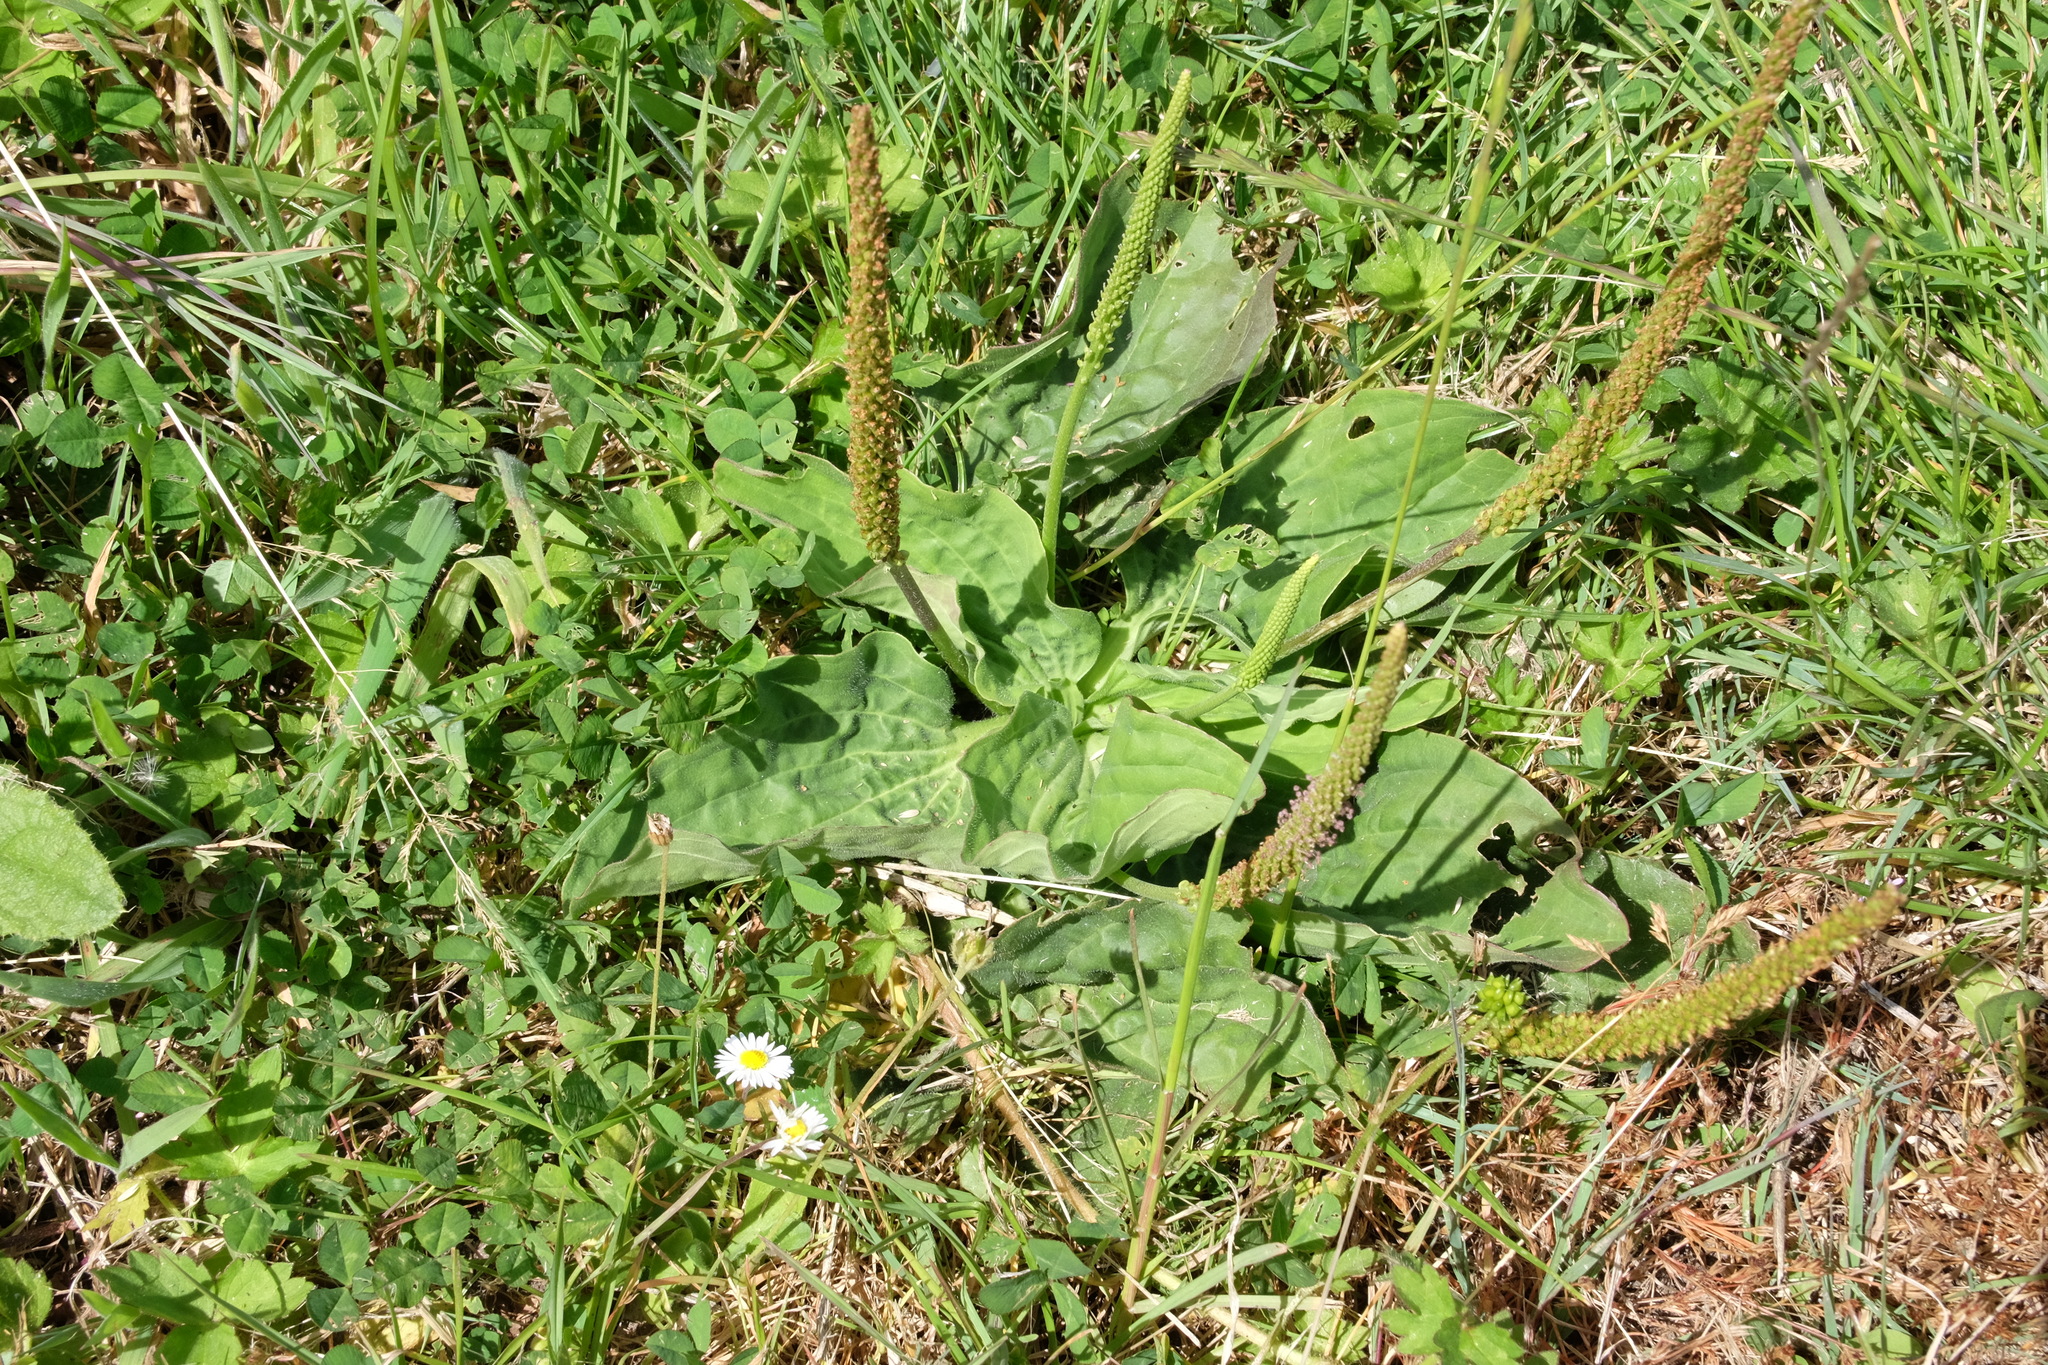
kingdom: Plantae
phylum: Tracheophyta
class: Magnoliopsida
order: Lamiales
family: Plantaginaceae
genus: Plantago
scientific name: Plantago major
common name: Common plantain
